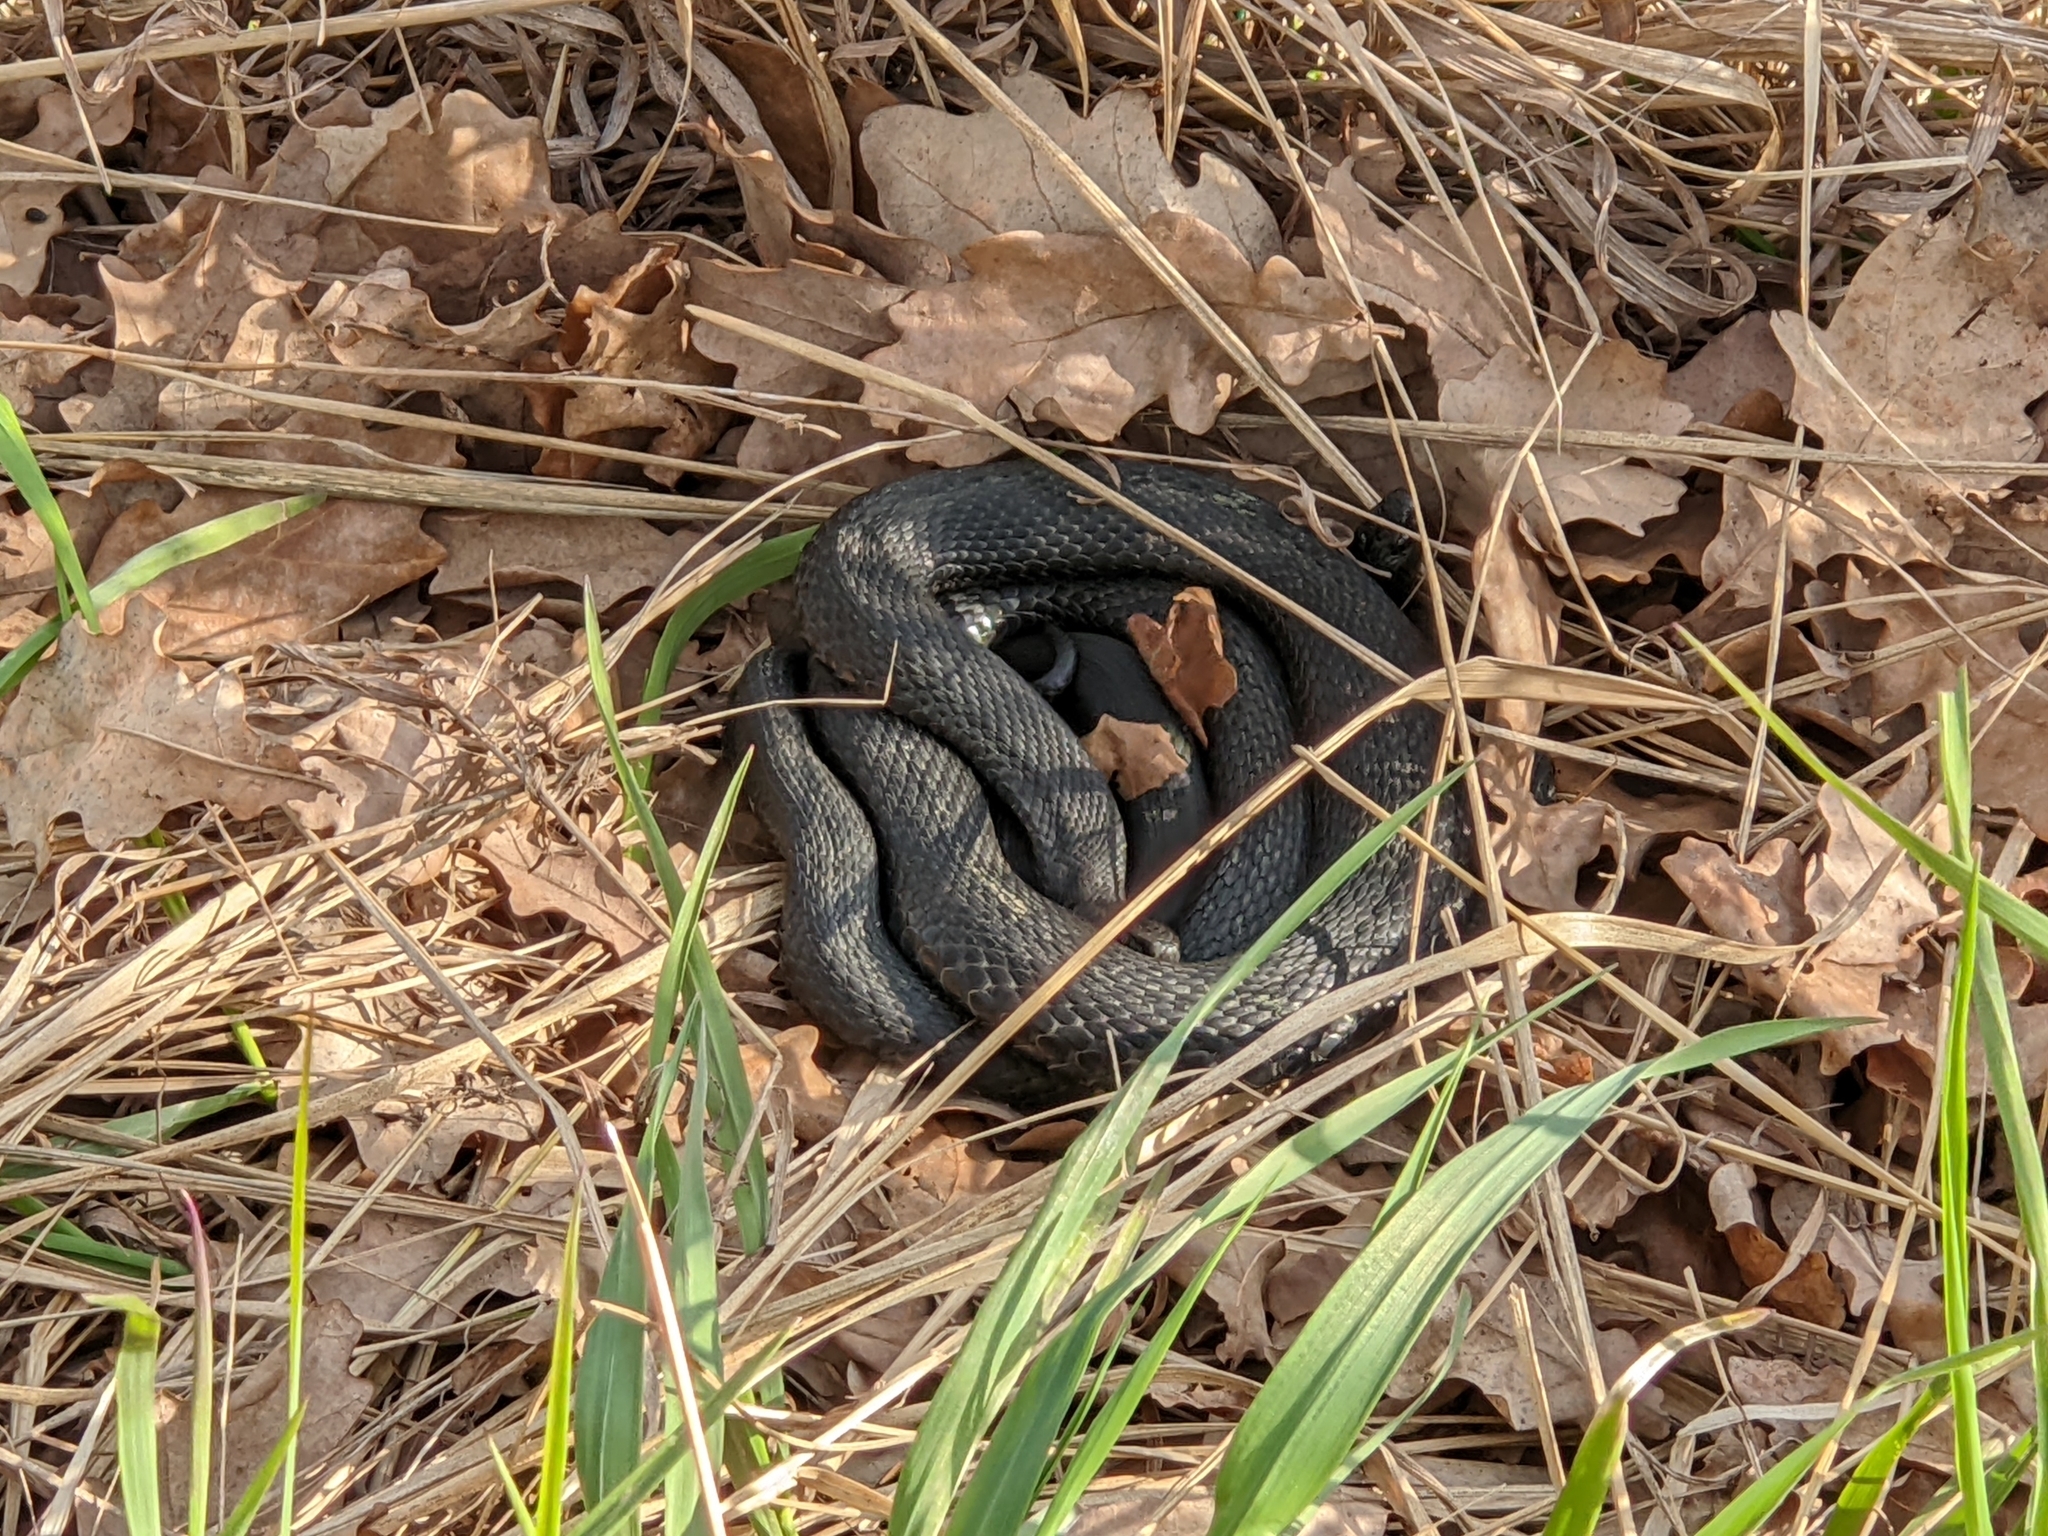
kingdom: Animalia
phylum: Chordata
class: Squamata
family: Viperidae
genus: Vipera
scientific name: Vipera berus
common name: Adder
